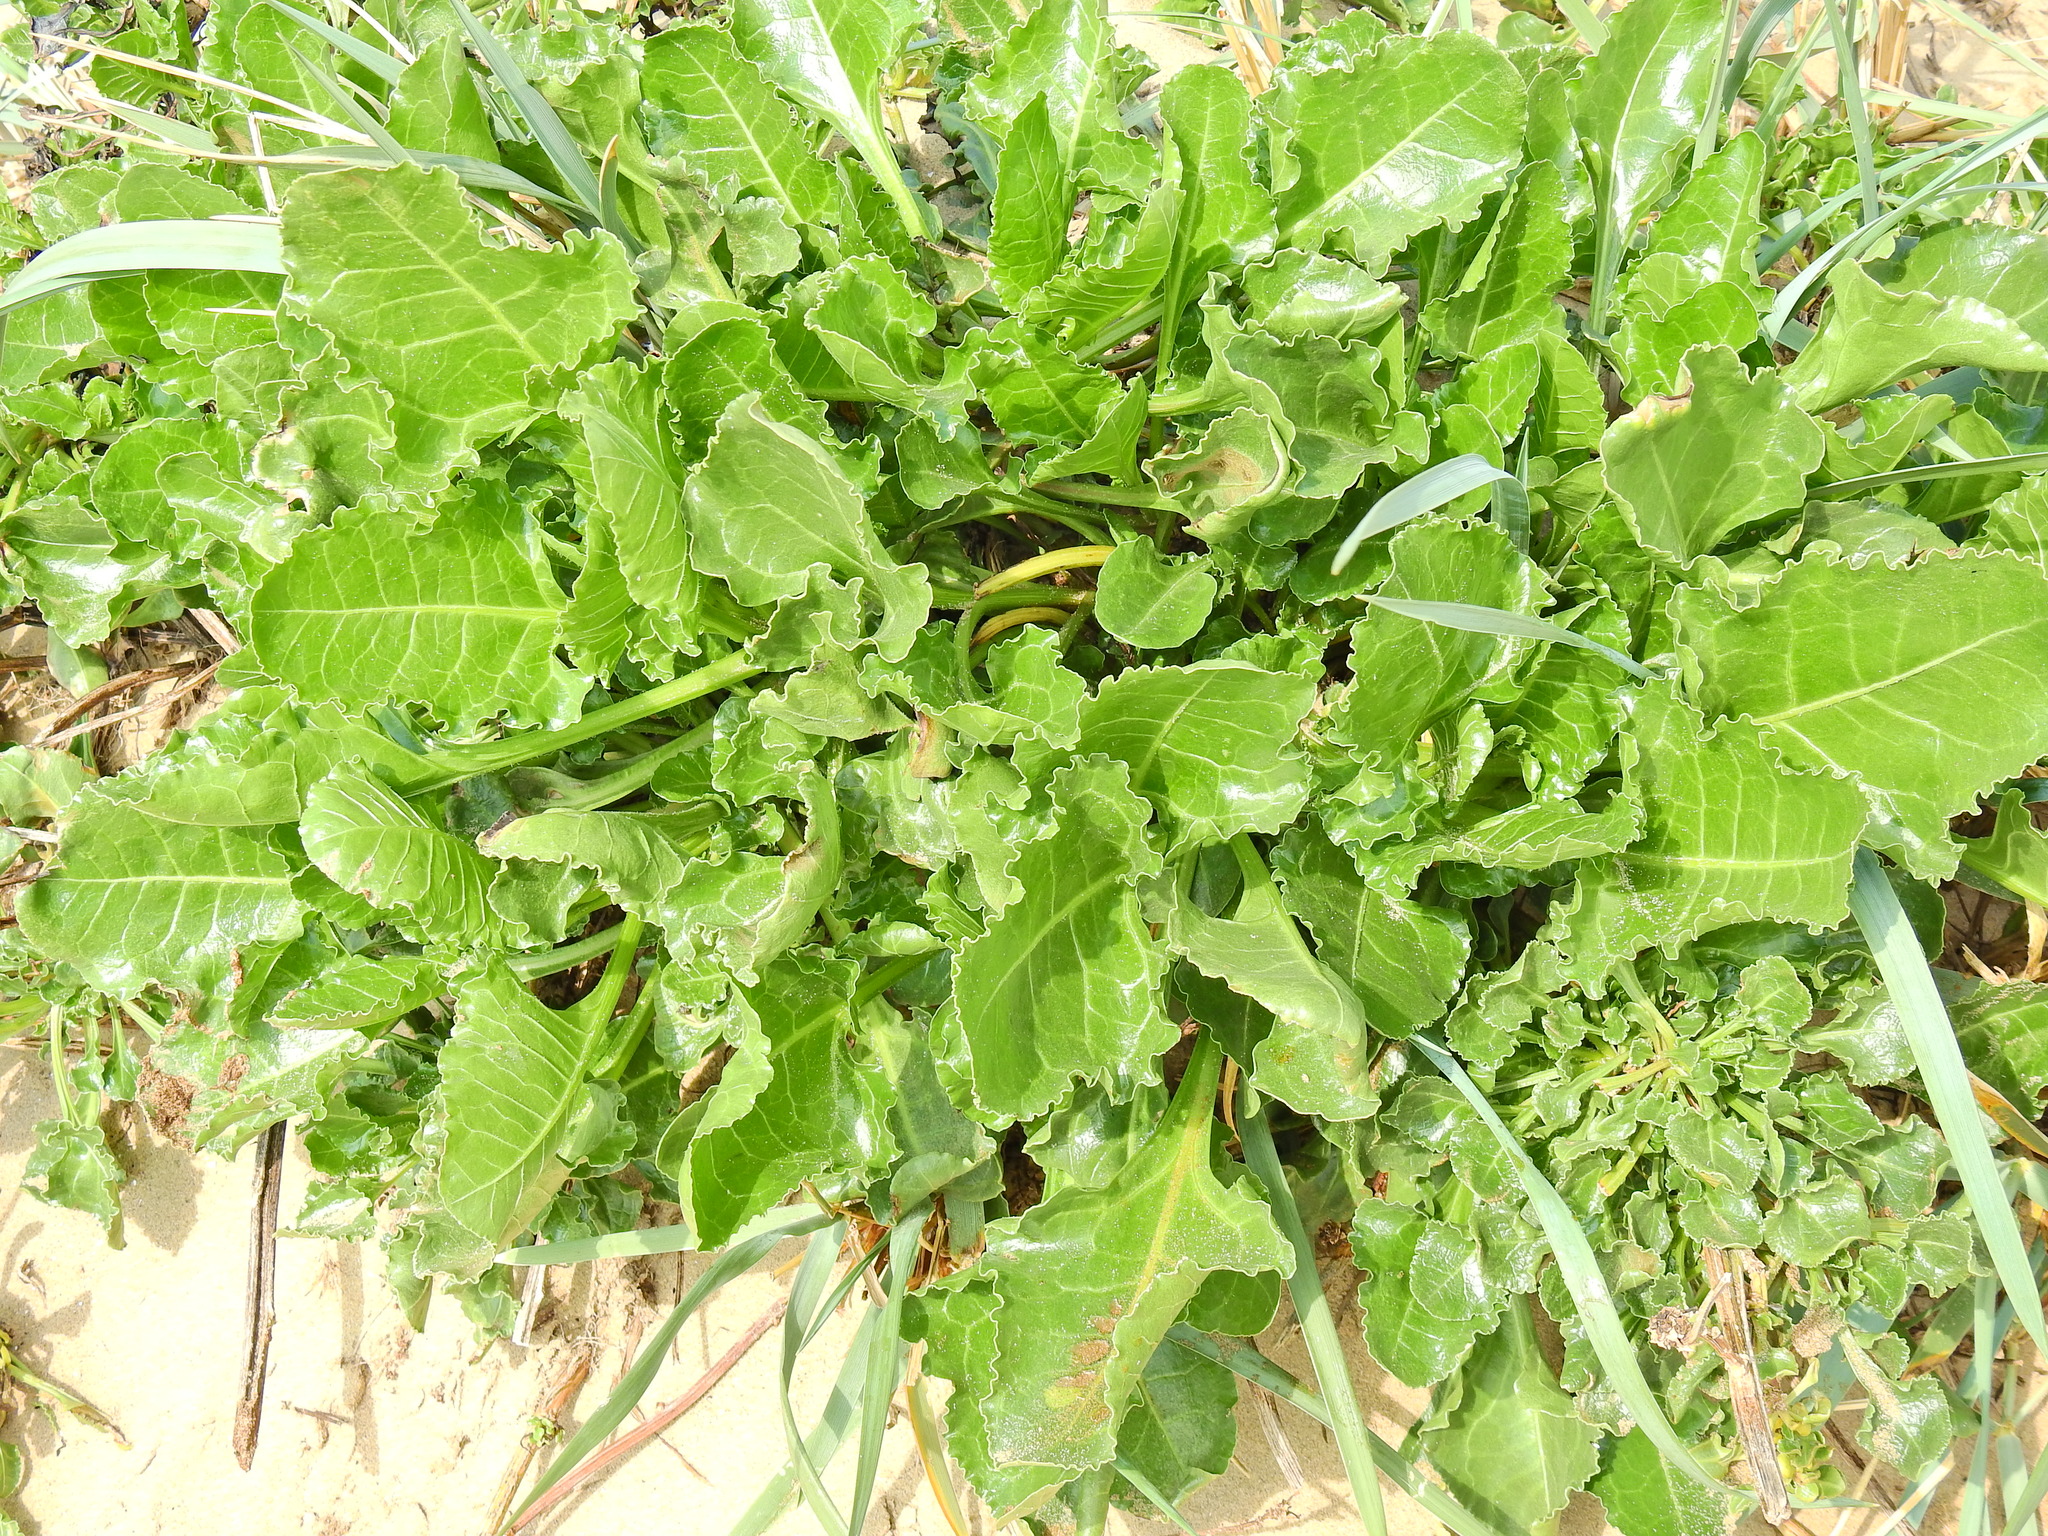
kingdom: Plantae
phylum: Tracheophyta
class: Magnoliopsida
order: Caryophyllales
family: Amaranthaceae
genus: Beta
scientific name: Beta vulgaris
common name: Beet
